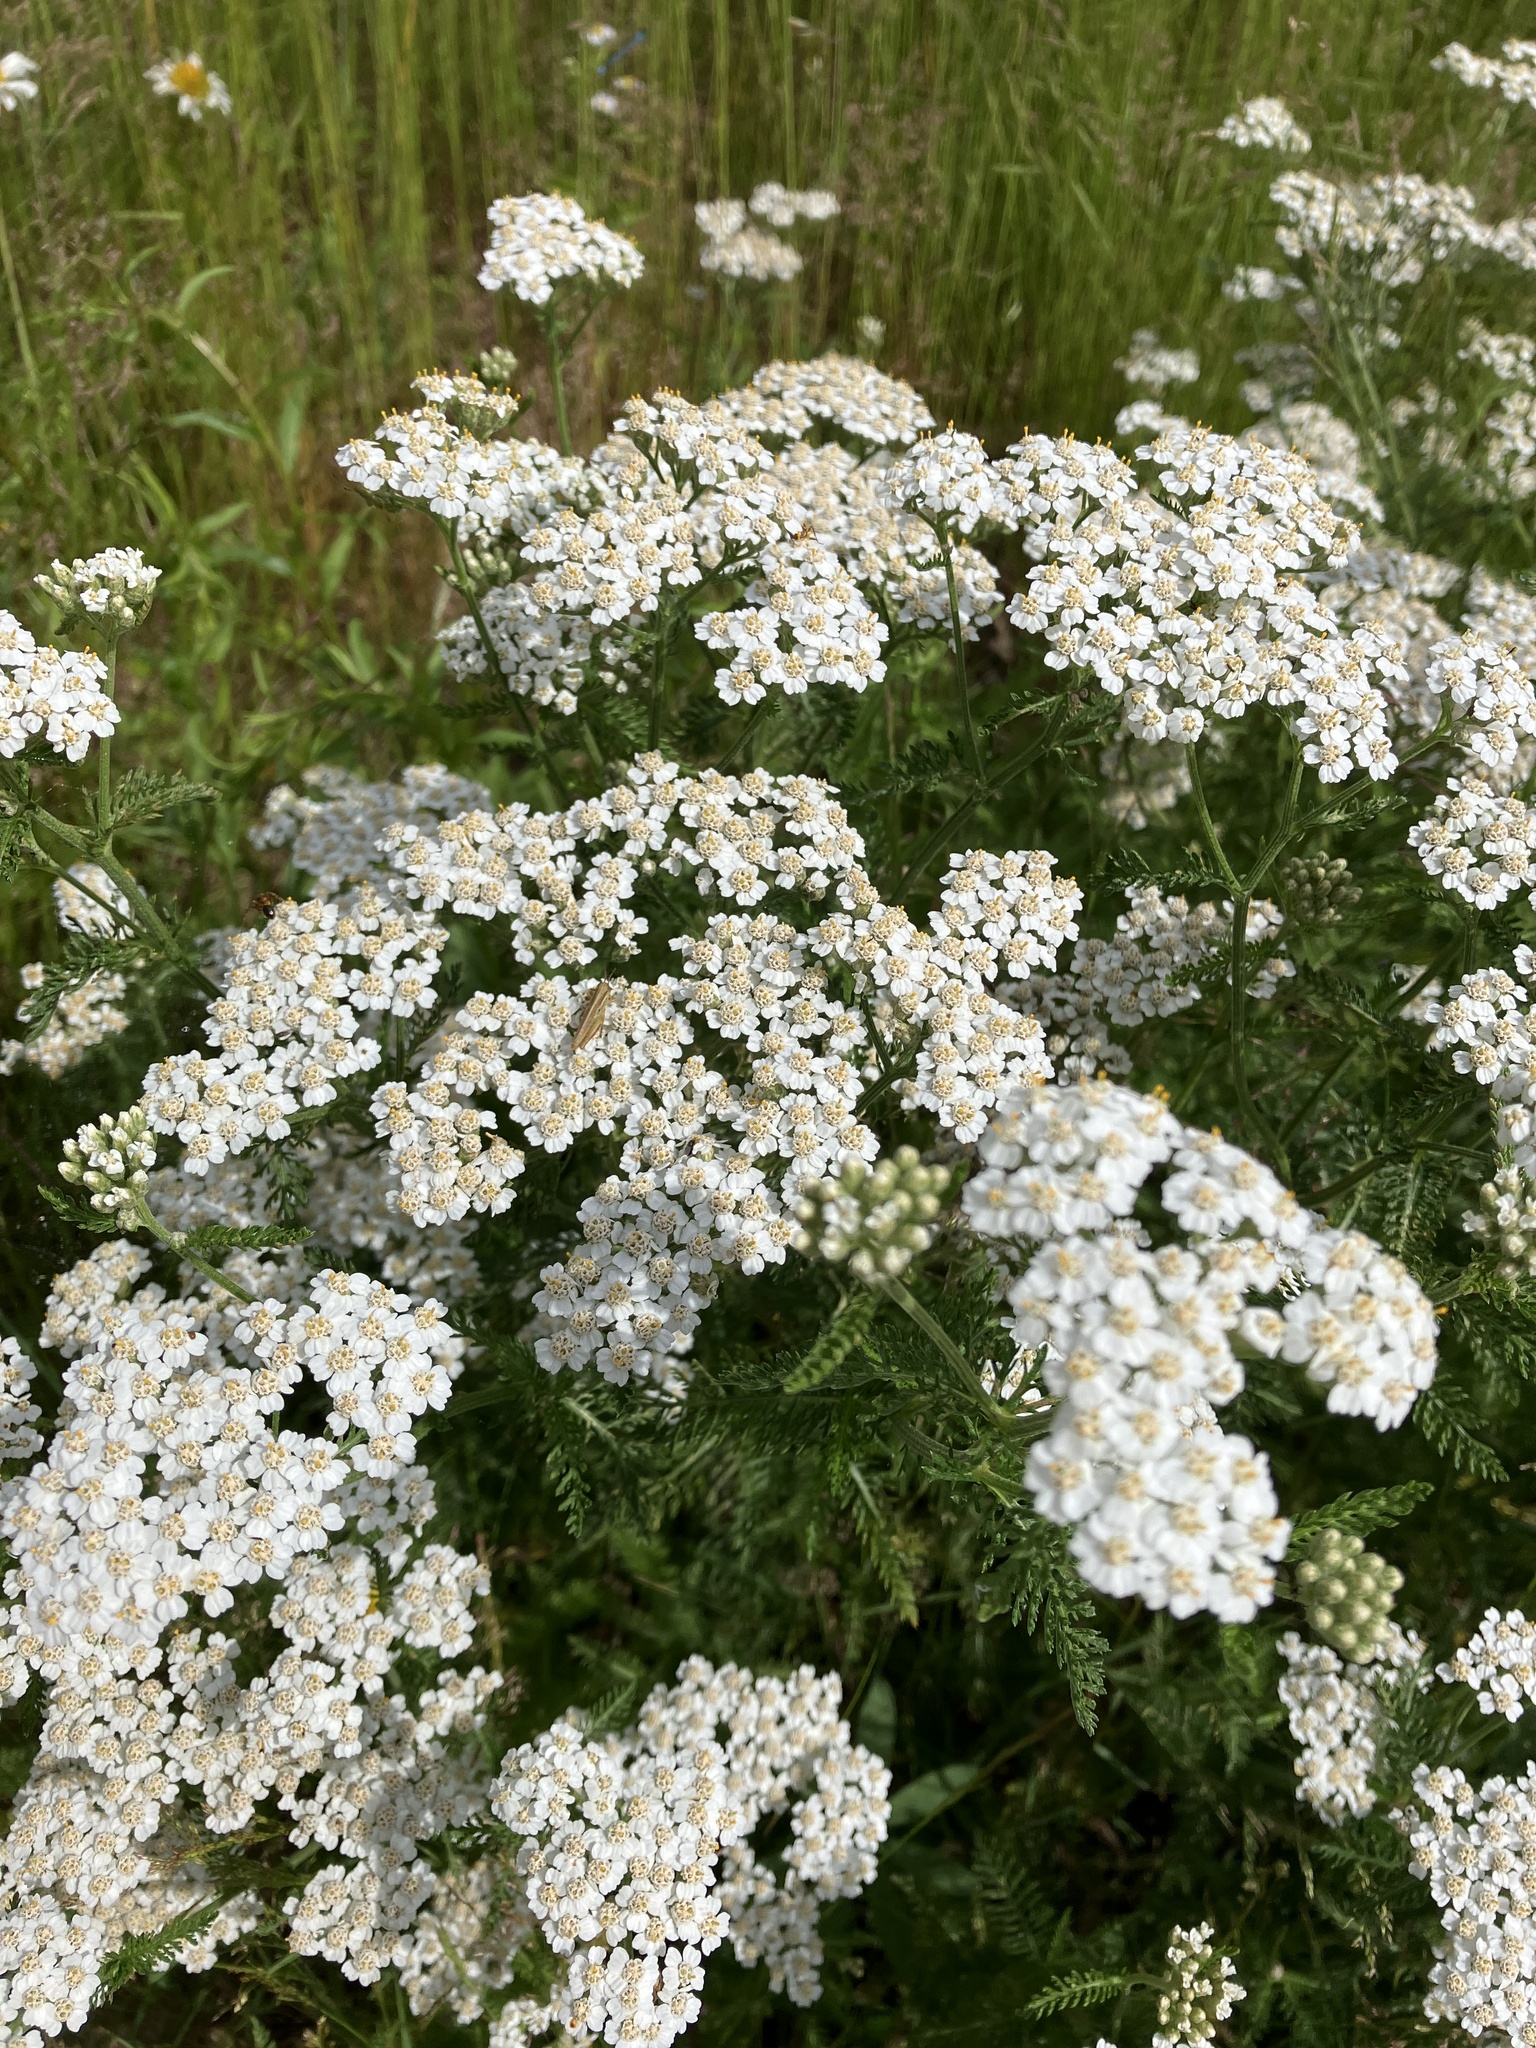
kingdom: Plantae
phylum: Tracheophyta
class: Magnoliopsida
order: Asterales
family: Asteraceae
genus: Achillea
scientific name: Achillea millefolium
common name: Yarrow
